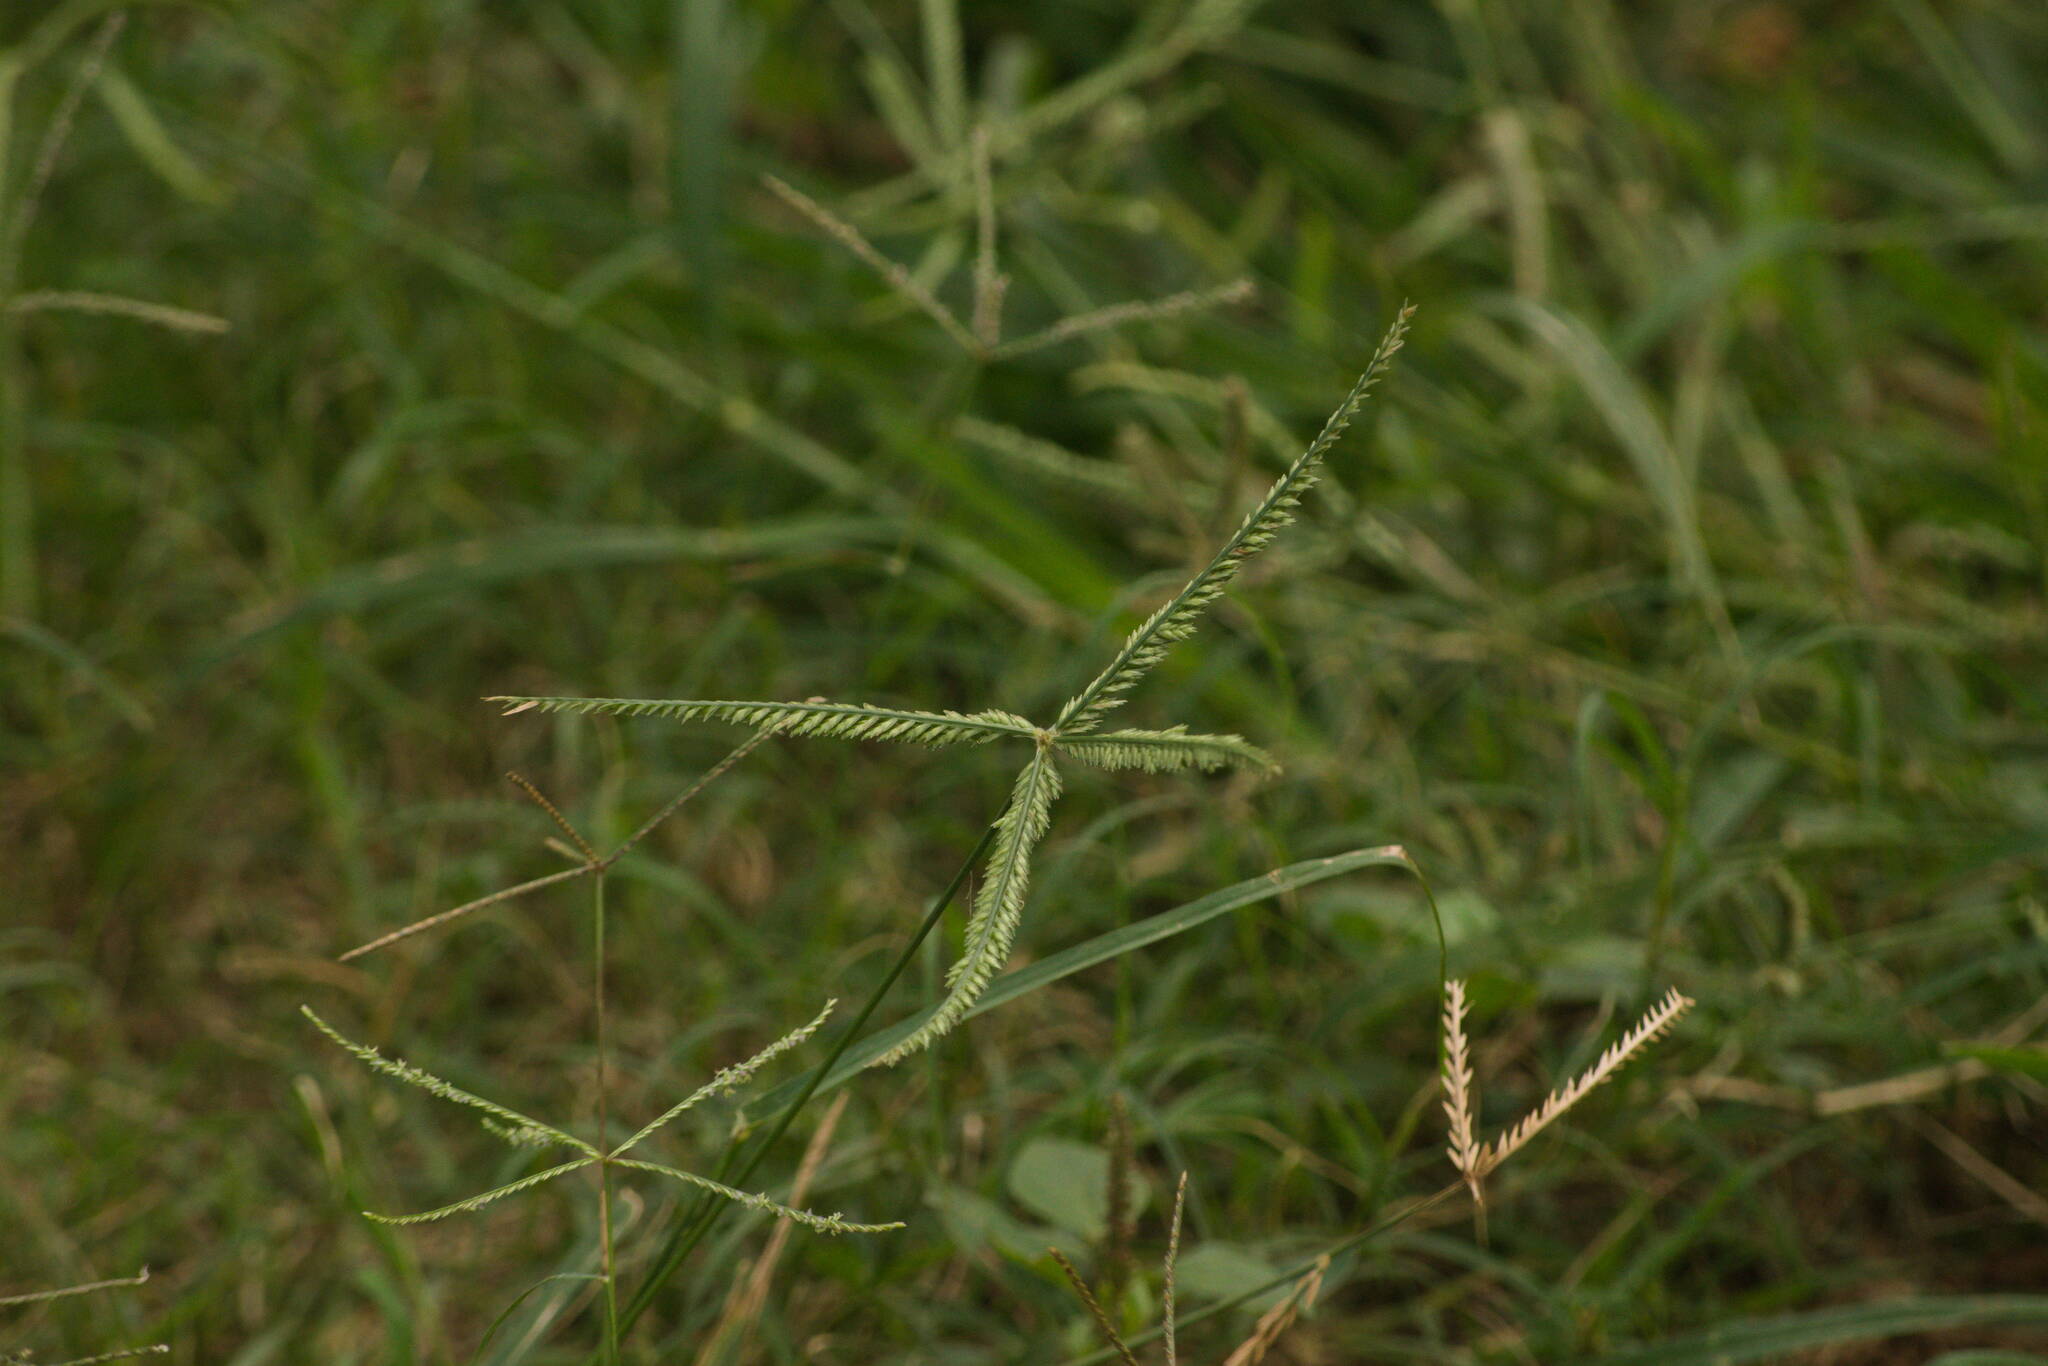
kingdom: Plantae
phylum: Tracheophyta
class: Liliopsida
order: Poales
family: Poaceae
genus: Eleusine
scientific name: Eleusine indica
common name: Yard-grass
